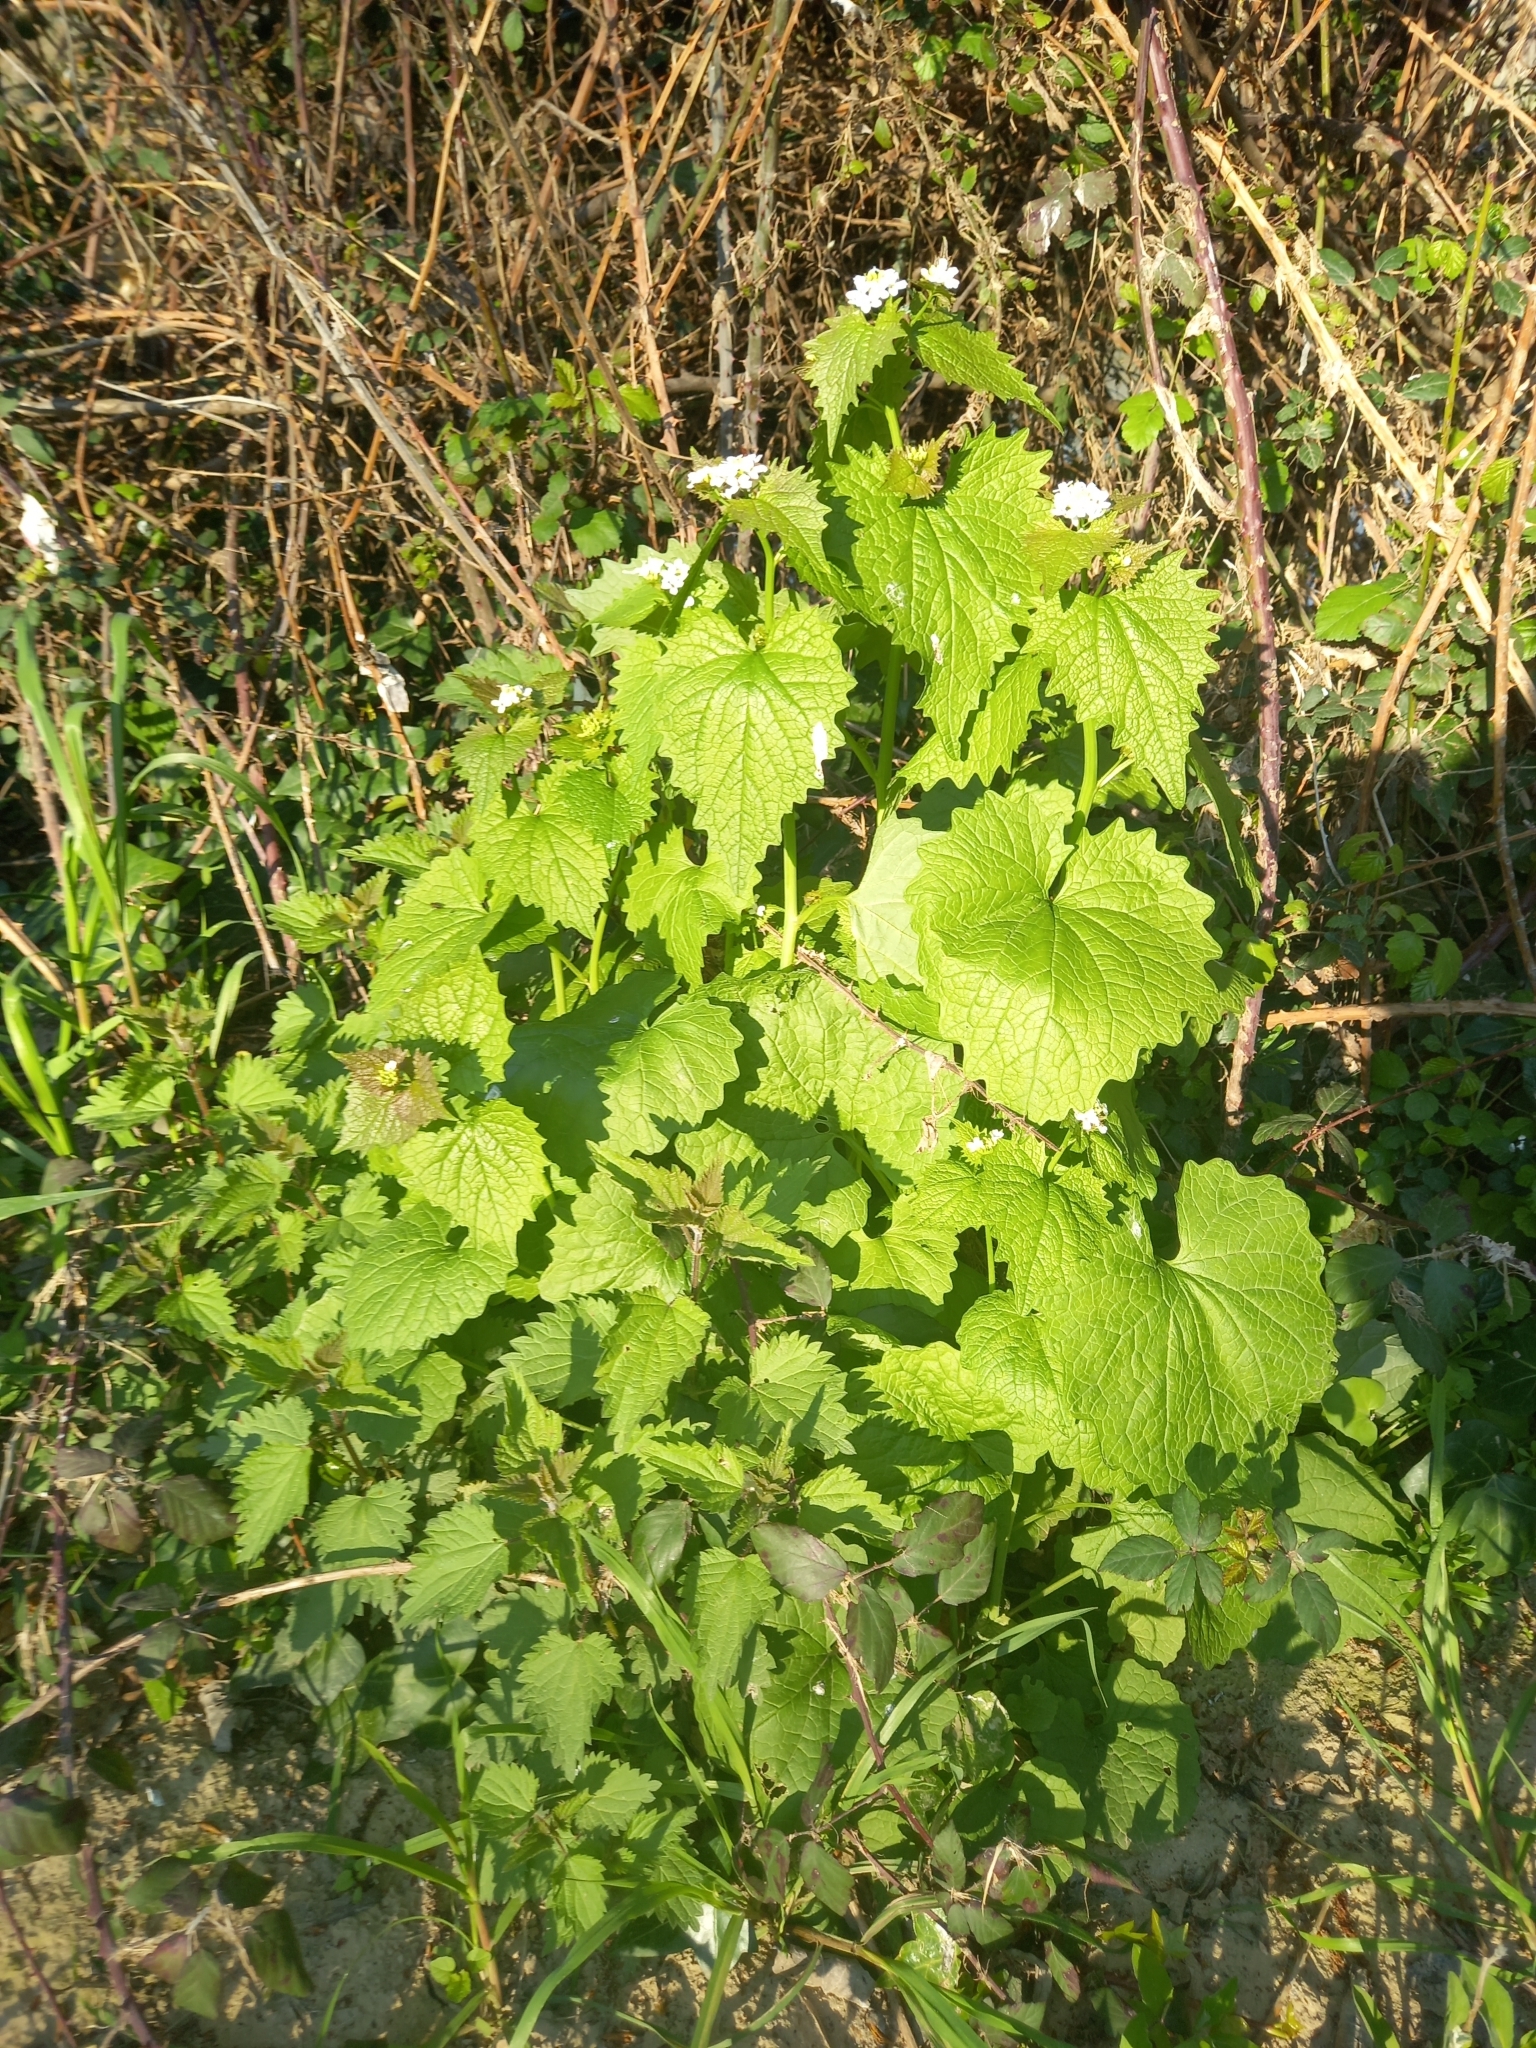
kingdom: Plantae
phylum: Tracheophyta
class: Magnoliopsida
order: Brassicales
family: Brassicaceae
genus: Alliaria
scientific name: Alliaria petiolata
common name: Garlic mustard
